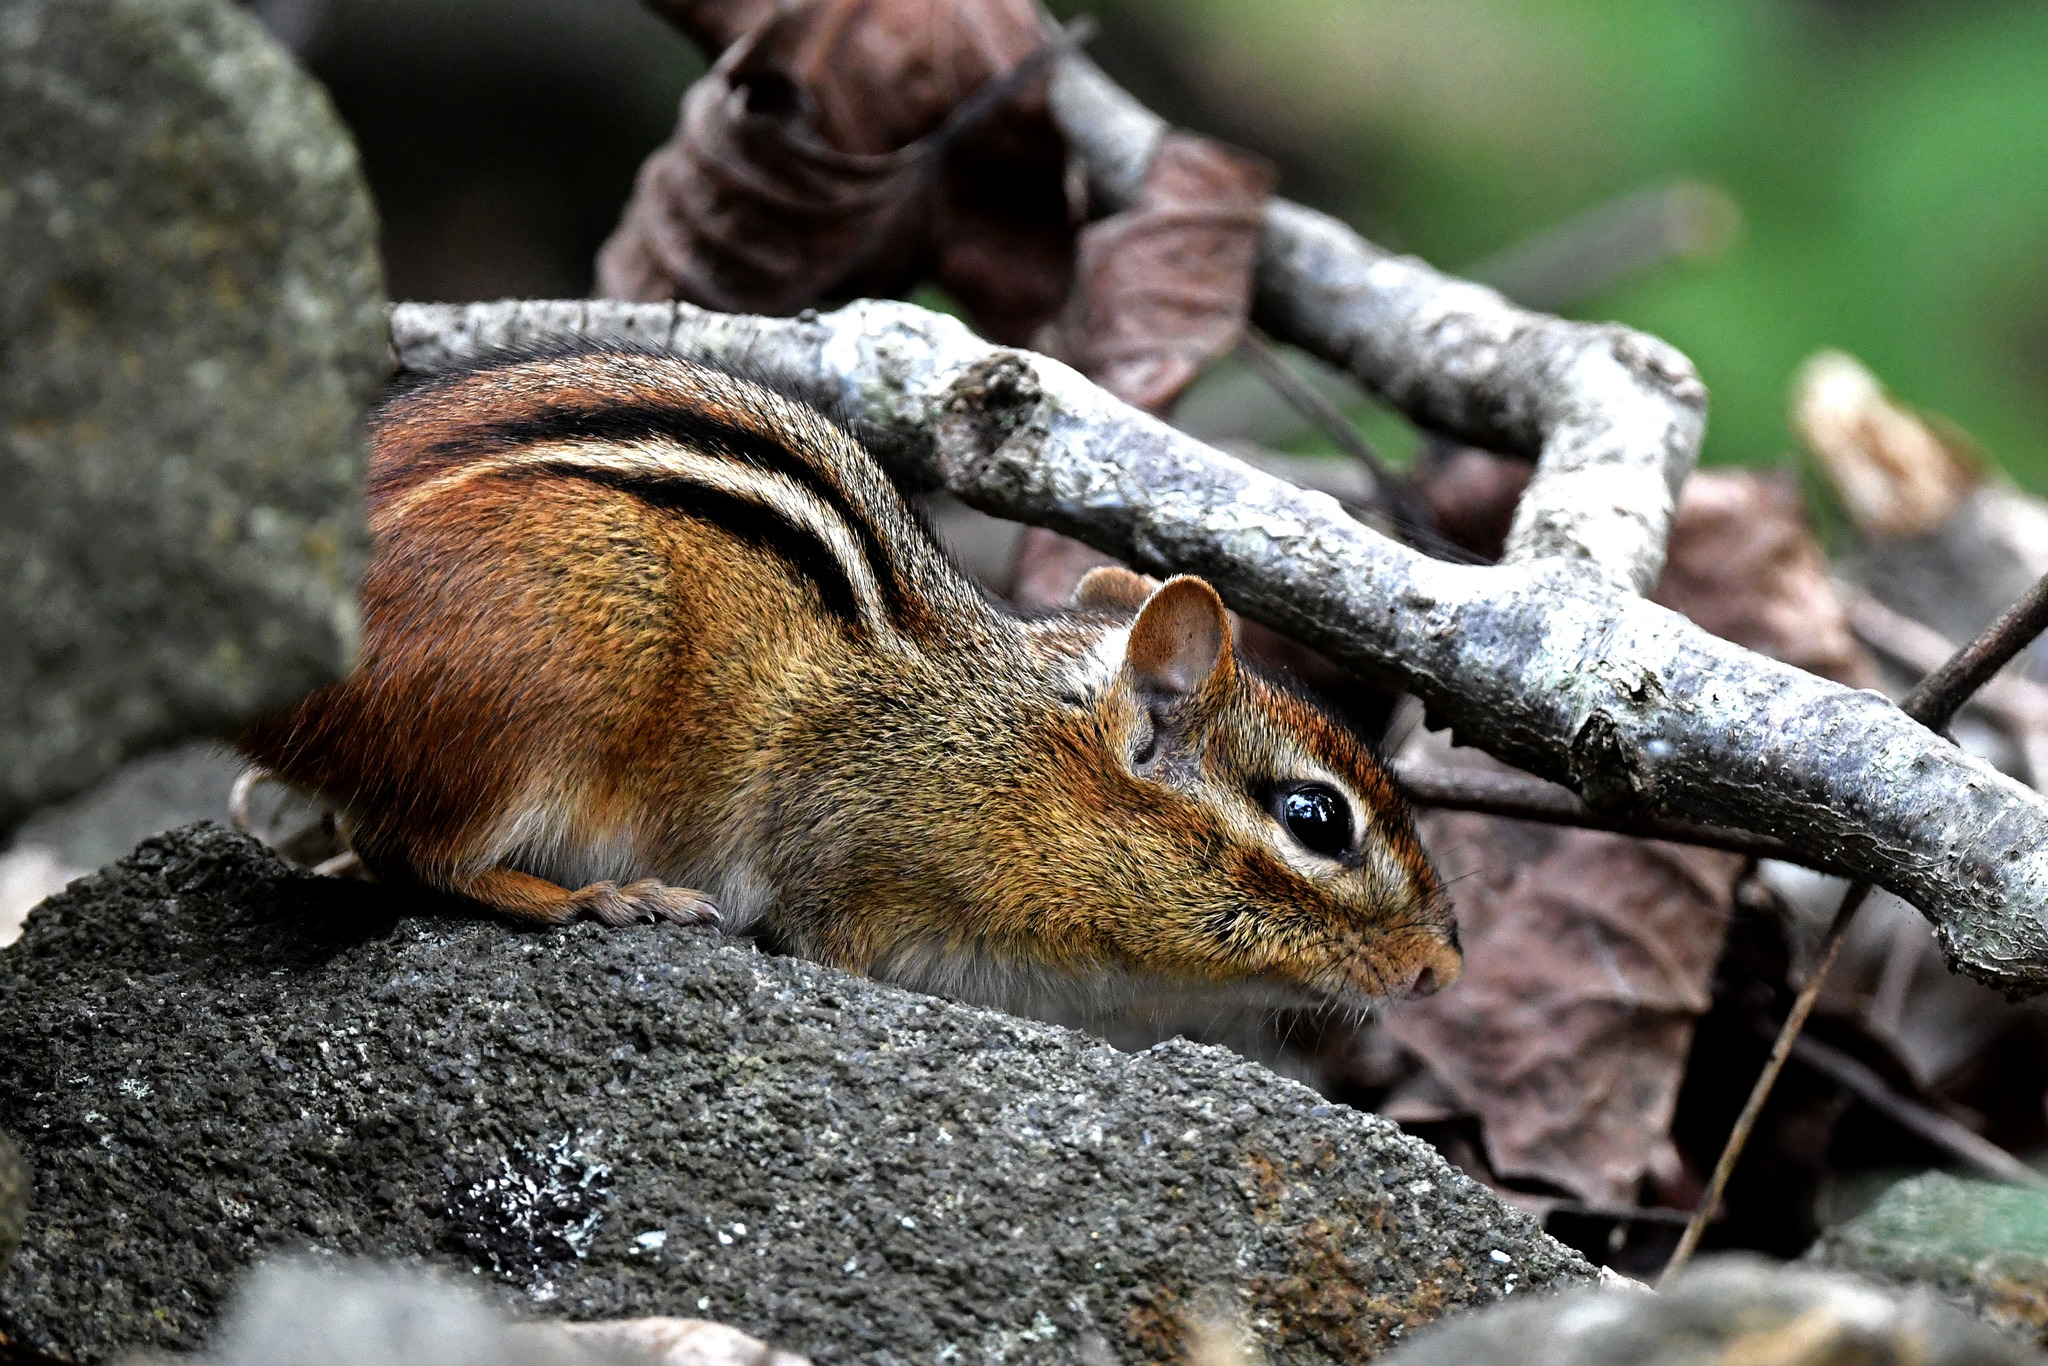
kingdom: Animalia
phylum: Chordata
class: Mammalia
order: Rodentia
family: Sciuridae
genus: Tamias
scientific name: Tamias striatus
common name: Eastern chipmunk
